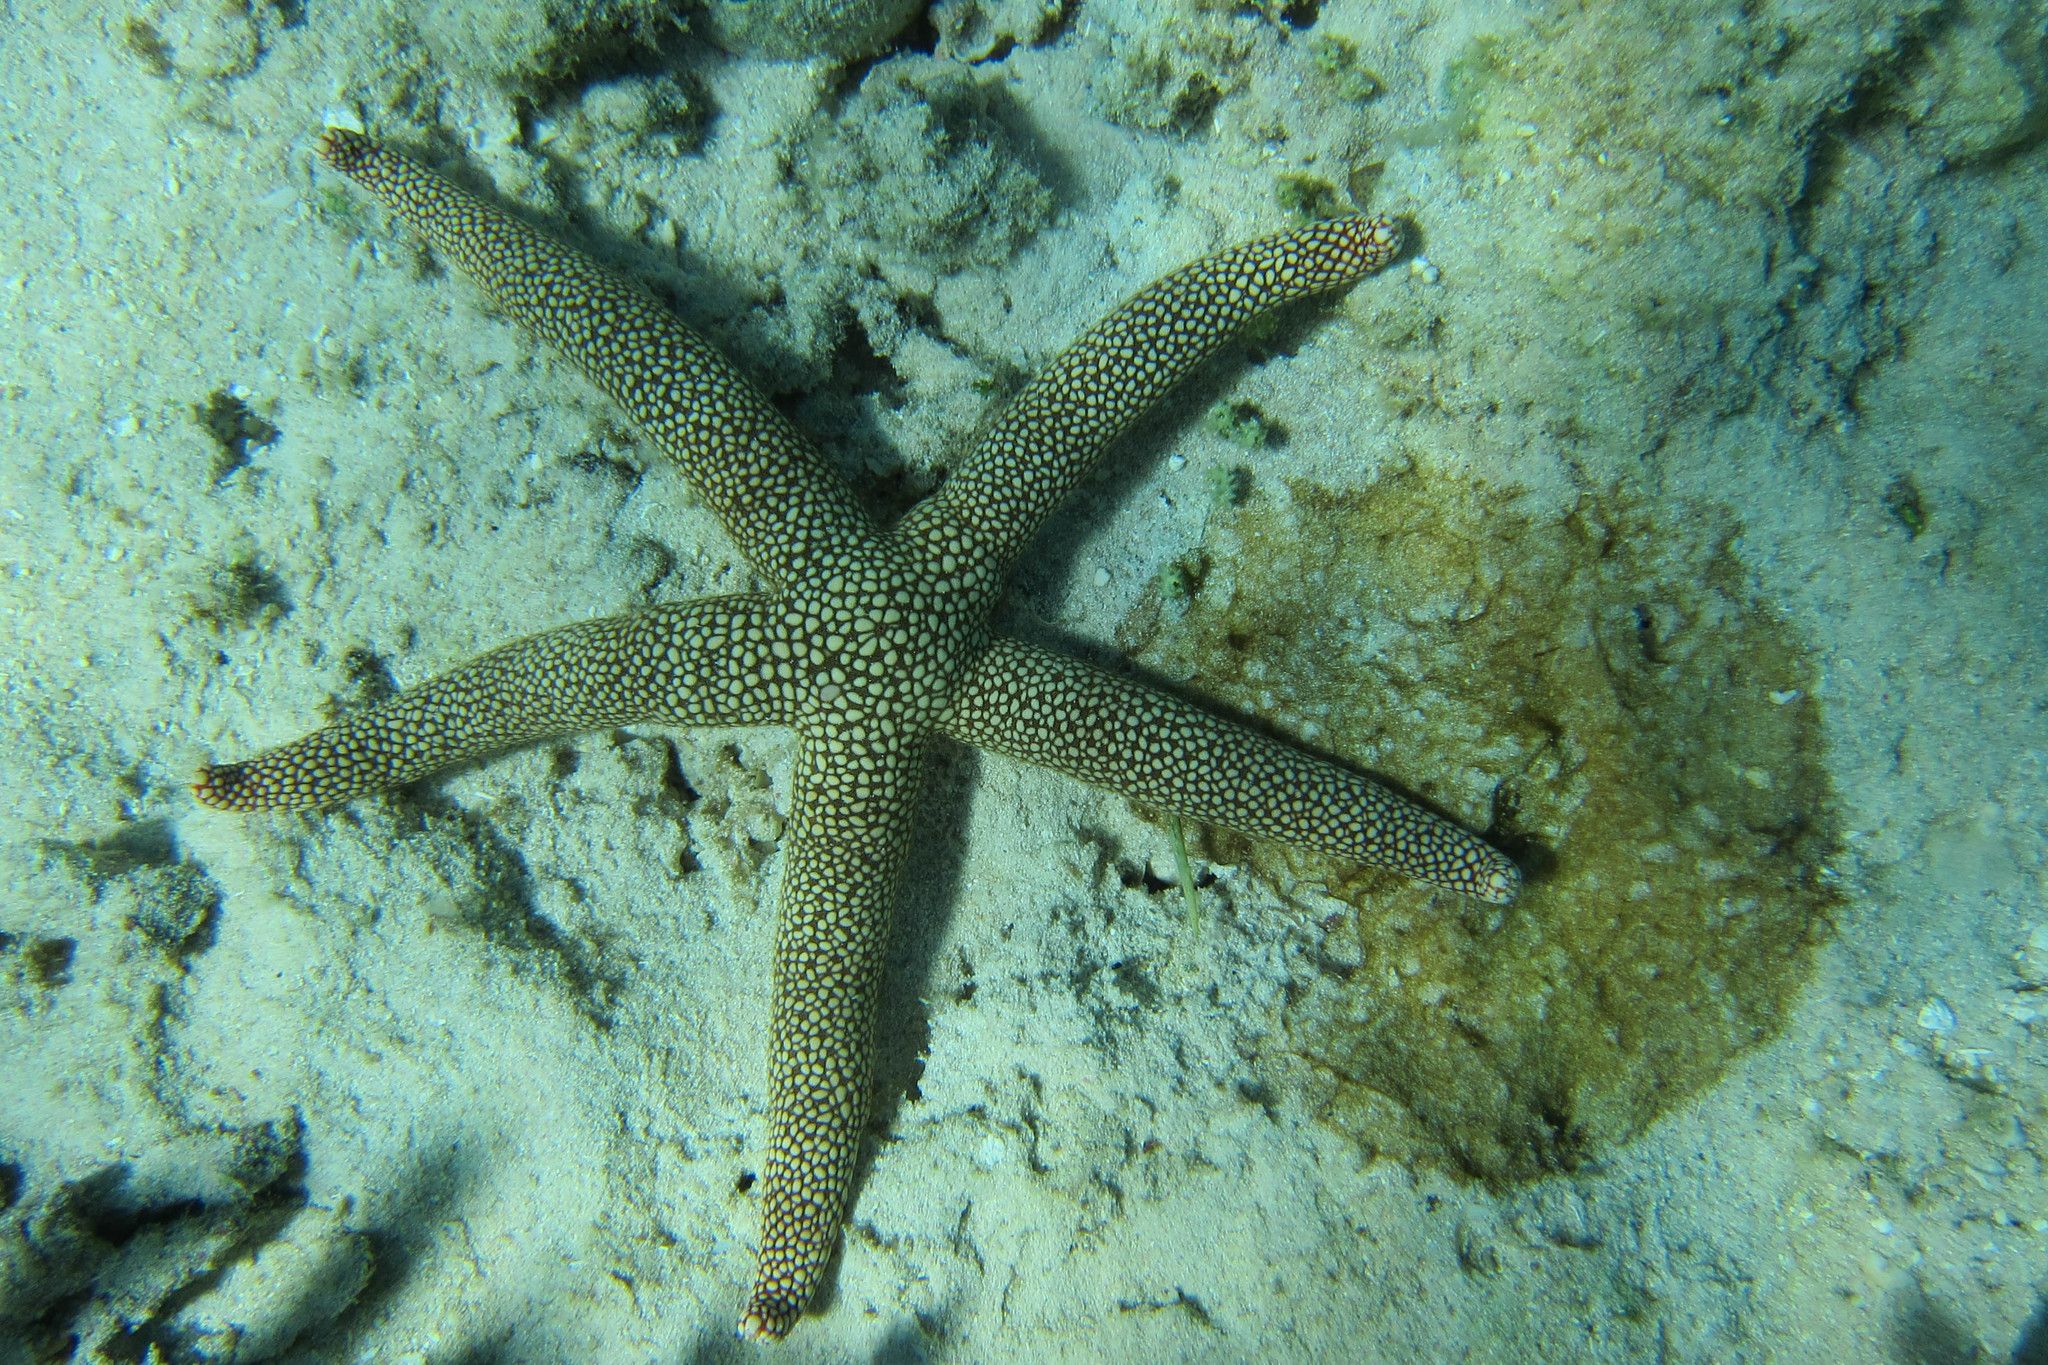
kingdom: Animalia
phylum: Echinodermata
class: Asteroidea
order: Valvatida
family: Ophidiasteridae
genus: Nardoa
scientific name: Nardoa novaecaledoniae
